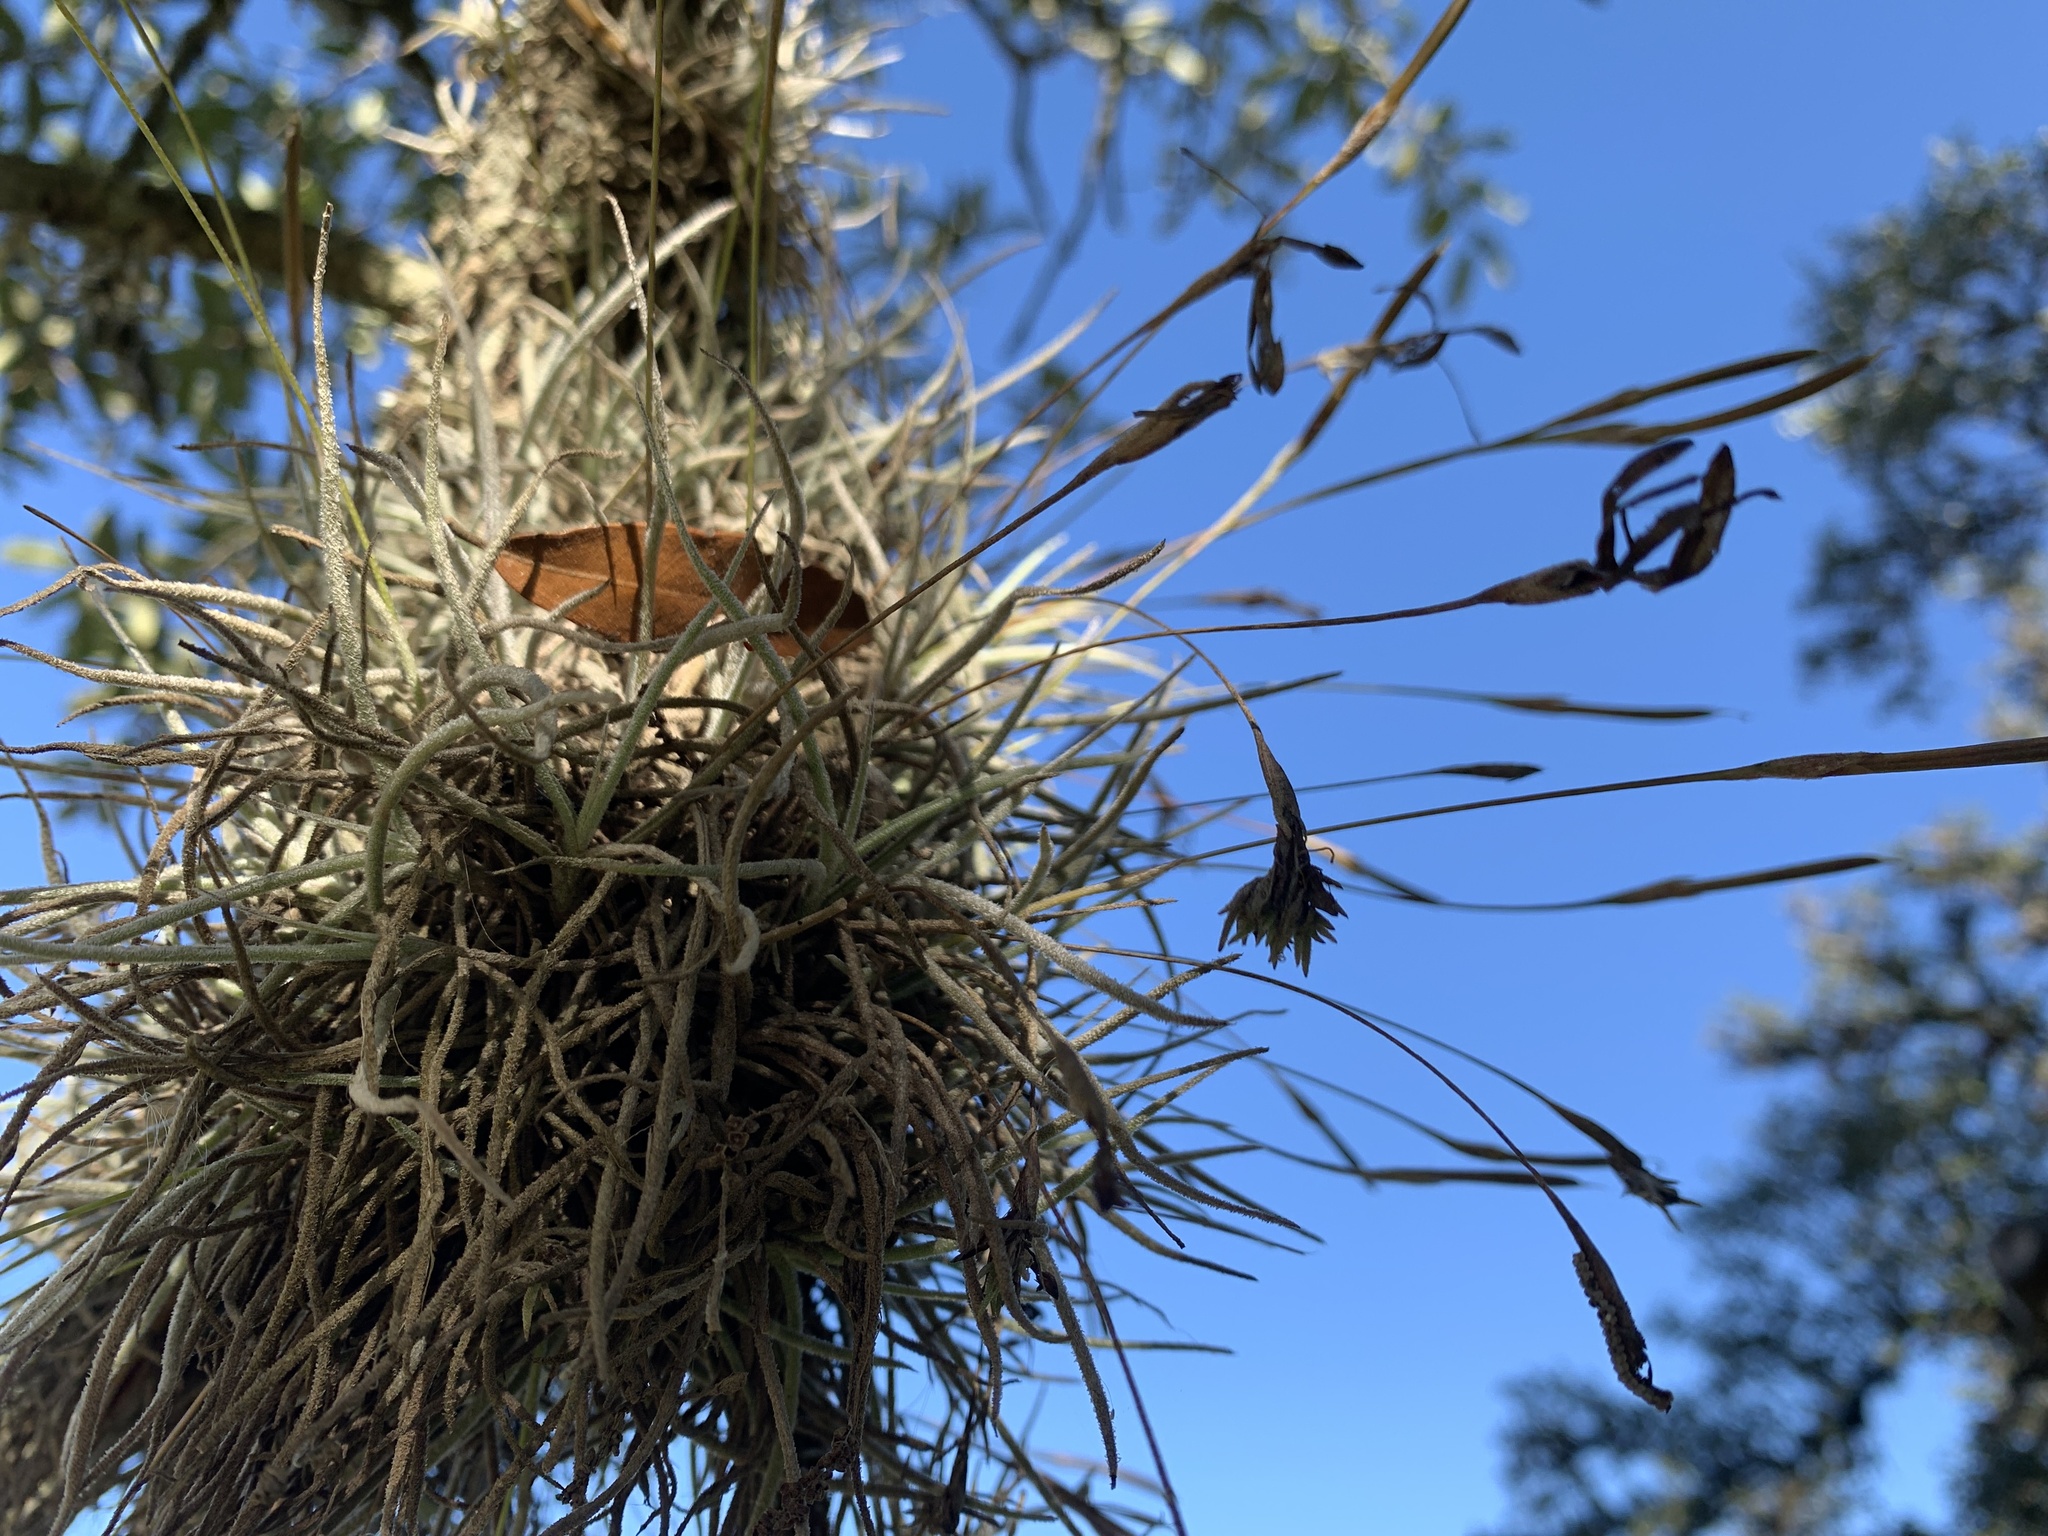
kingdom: Plantae
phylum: Tracheophyta
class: Liliopsida
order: Poales
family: Bromeliaceae
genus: Tillandsia
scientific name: Tillandsia recurvata
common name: Small ballmoss
